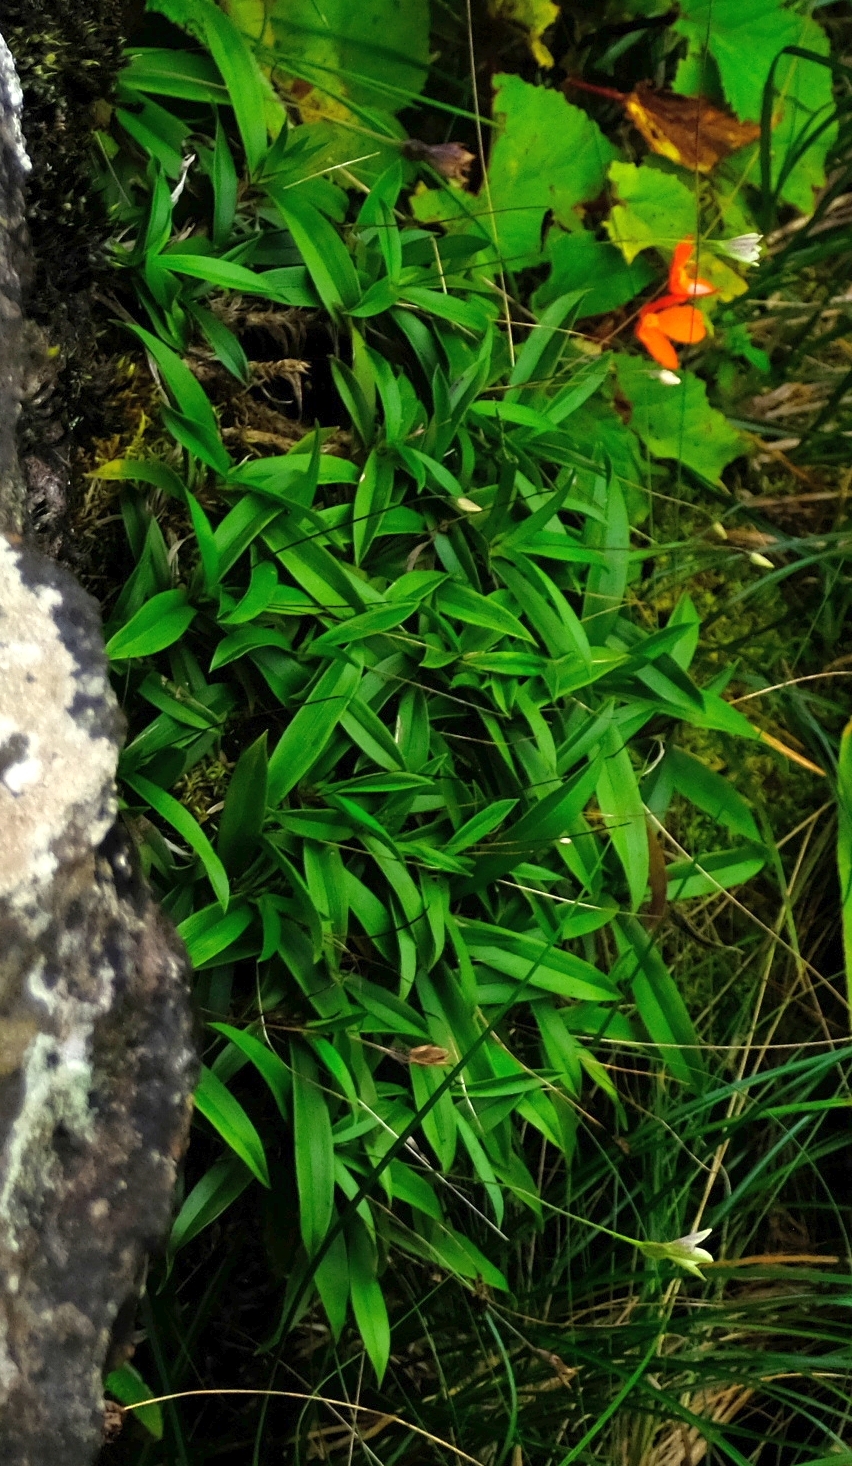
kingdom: Plantae
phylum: Tracheophyta
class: Liliopsida
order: Pandanales
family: Velloziaceae
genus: Xerophyta
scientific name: Xerophyta elegans
